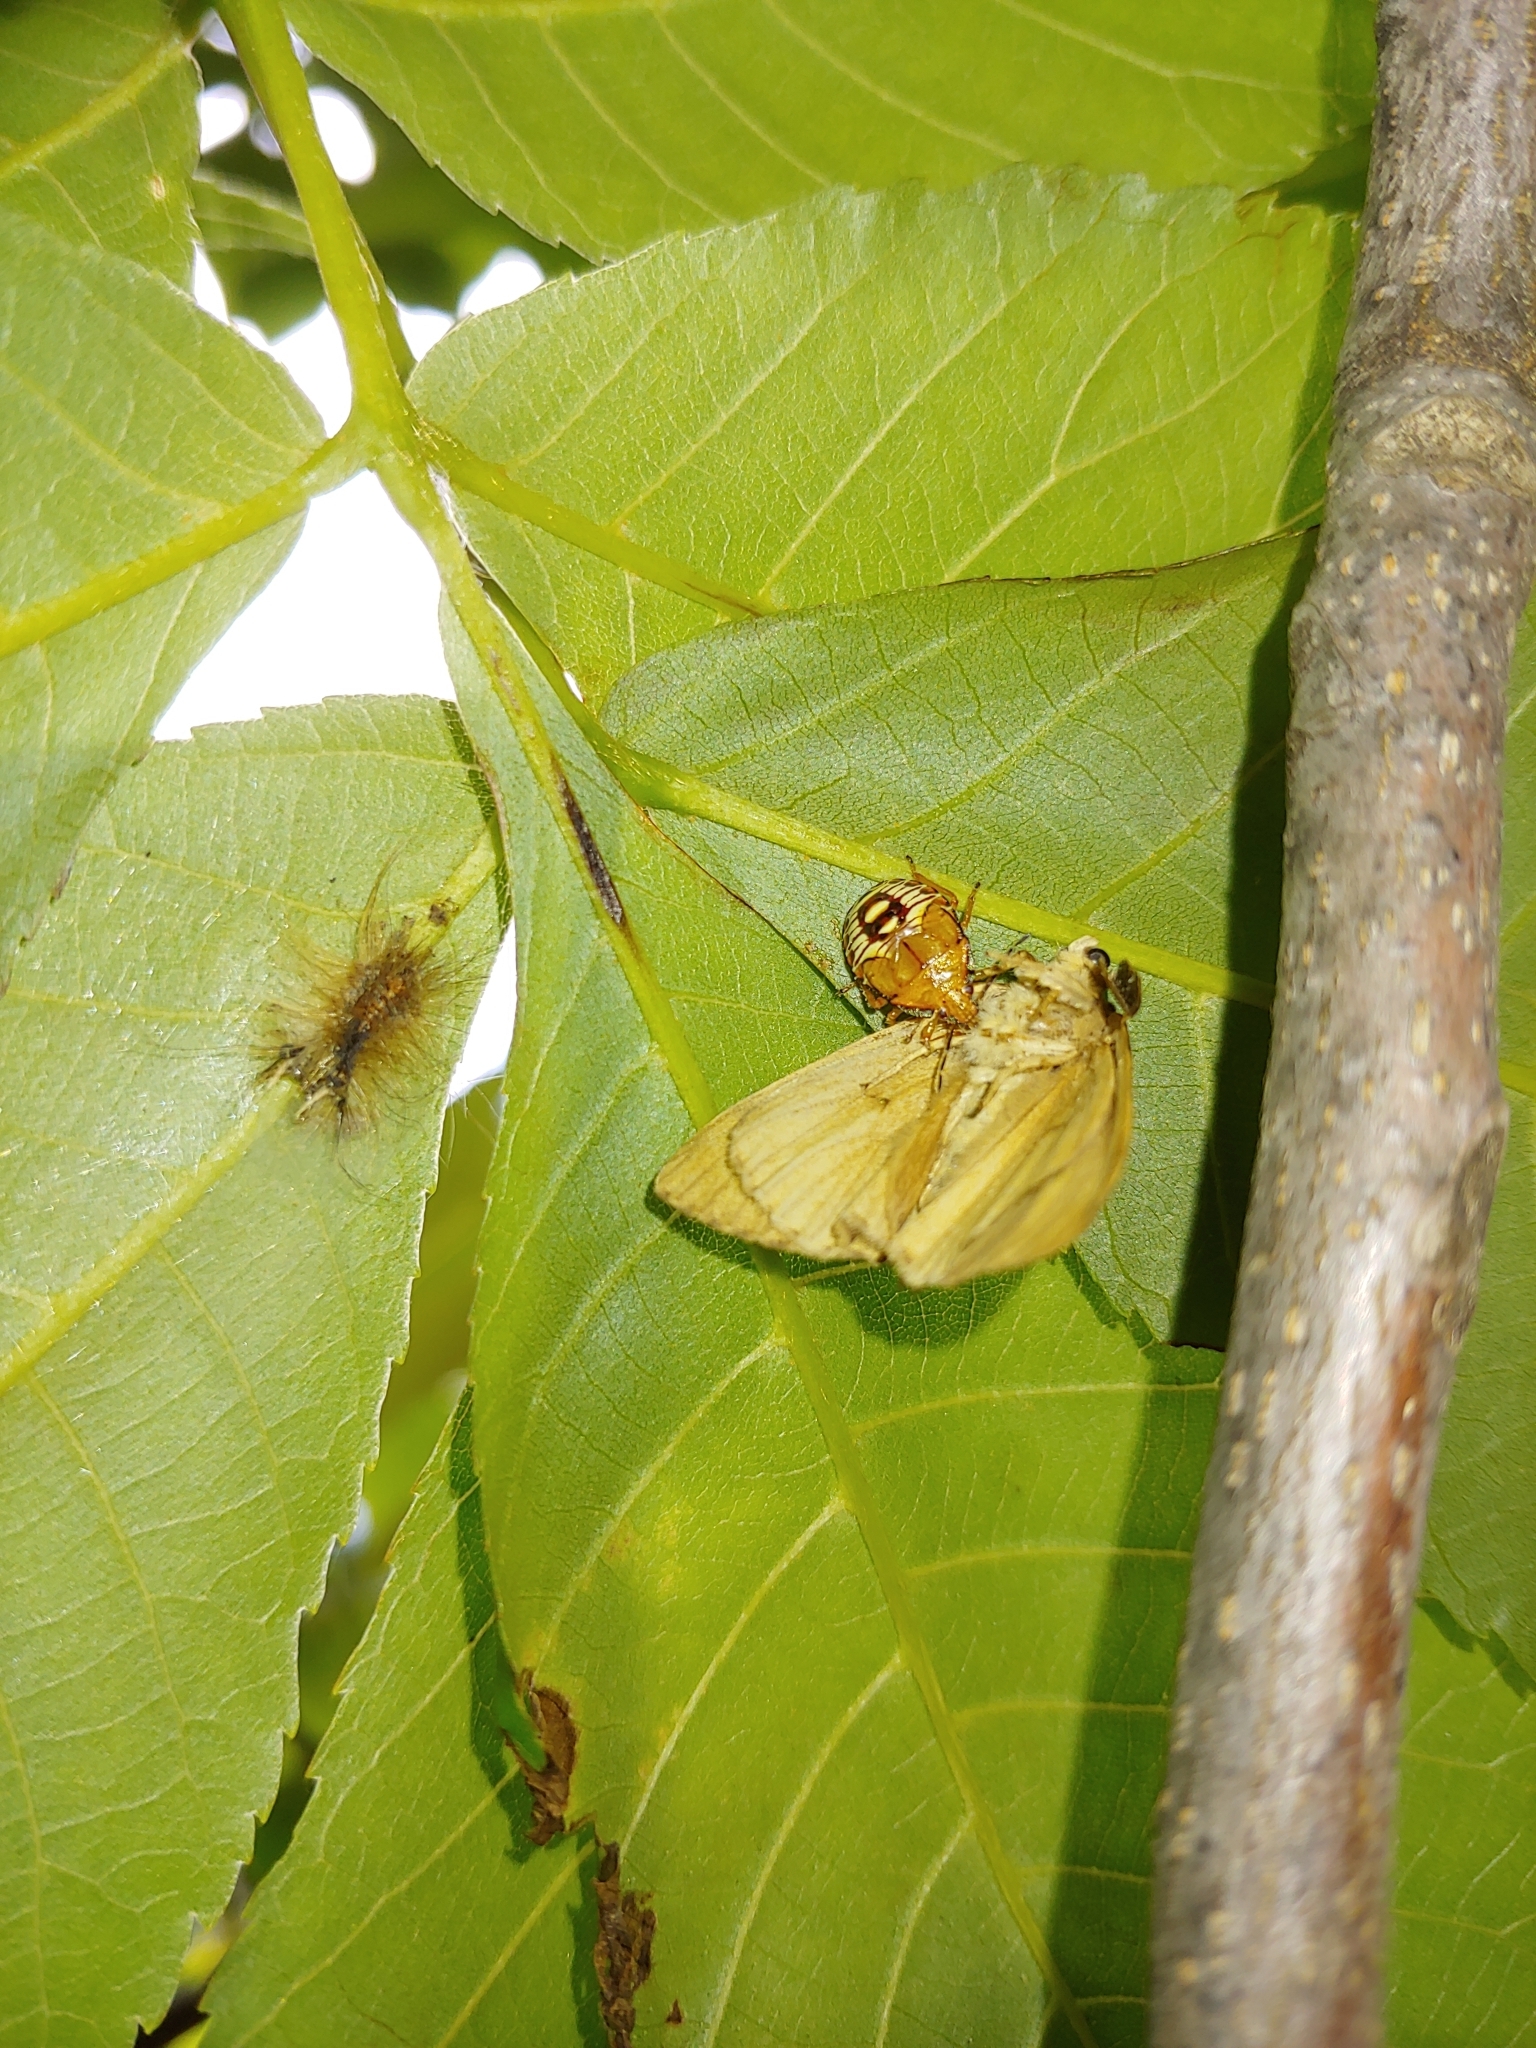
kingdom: Animalia
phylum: Arthropoda
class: Insecta
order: Lepidoptera
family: Erebidae
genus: Lymantria
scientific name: Lymantria dispar
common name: Gypsy moth
